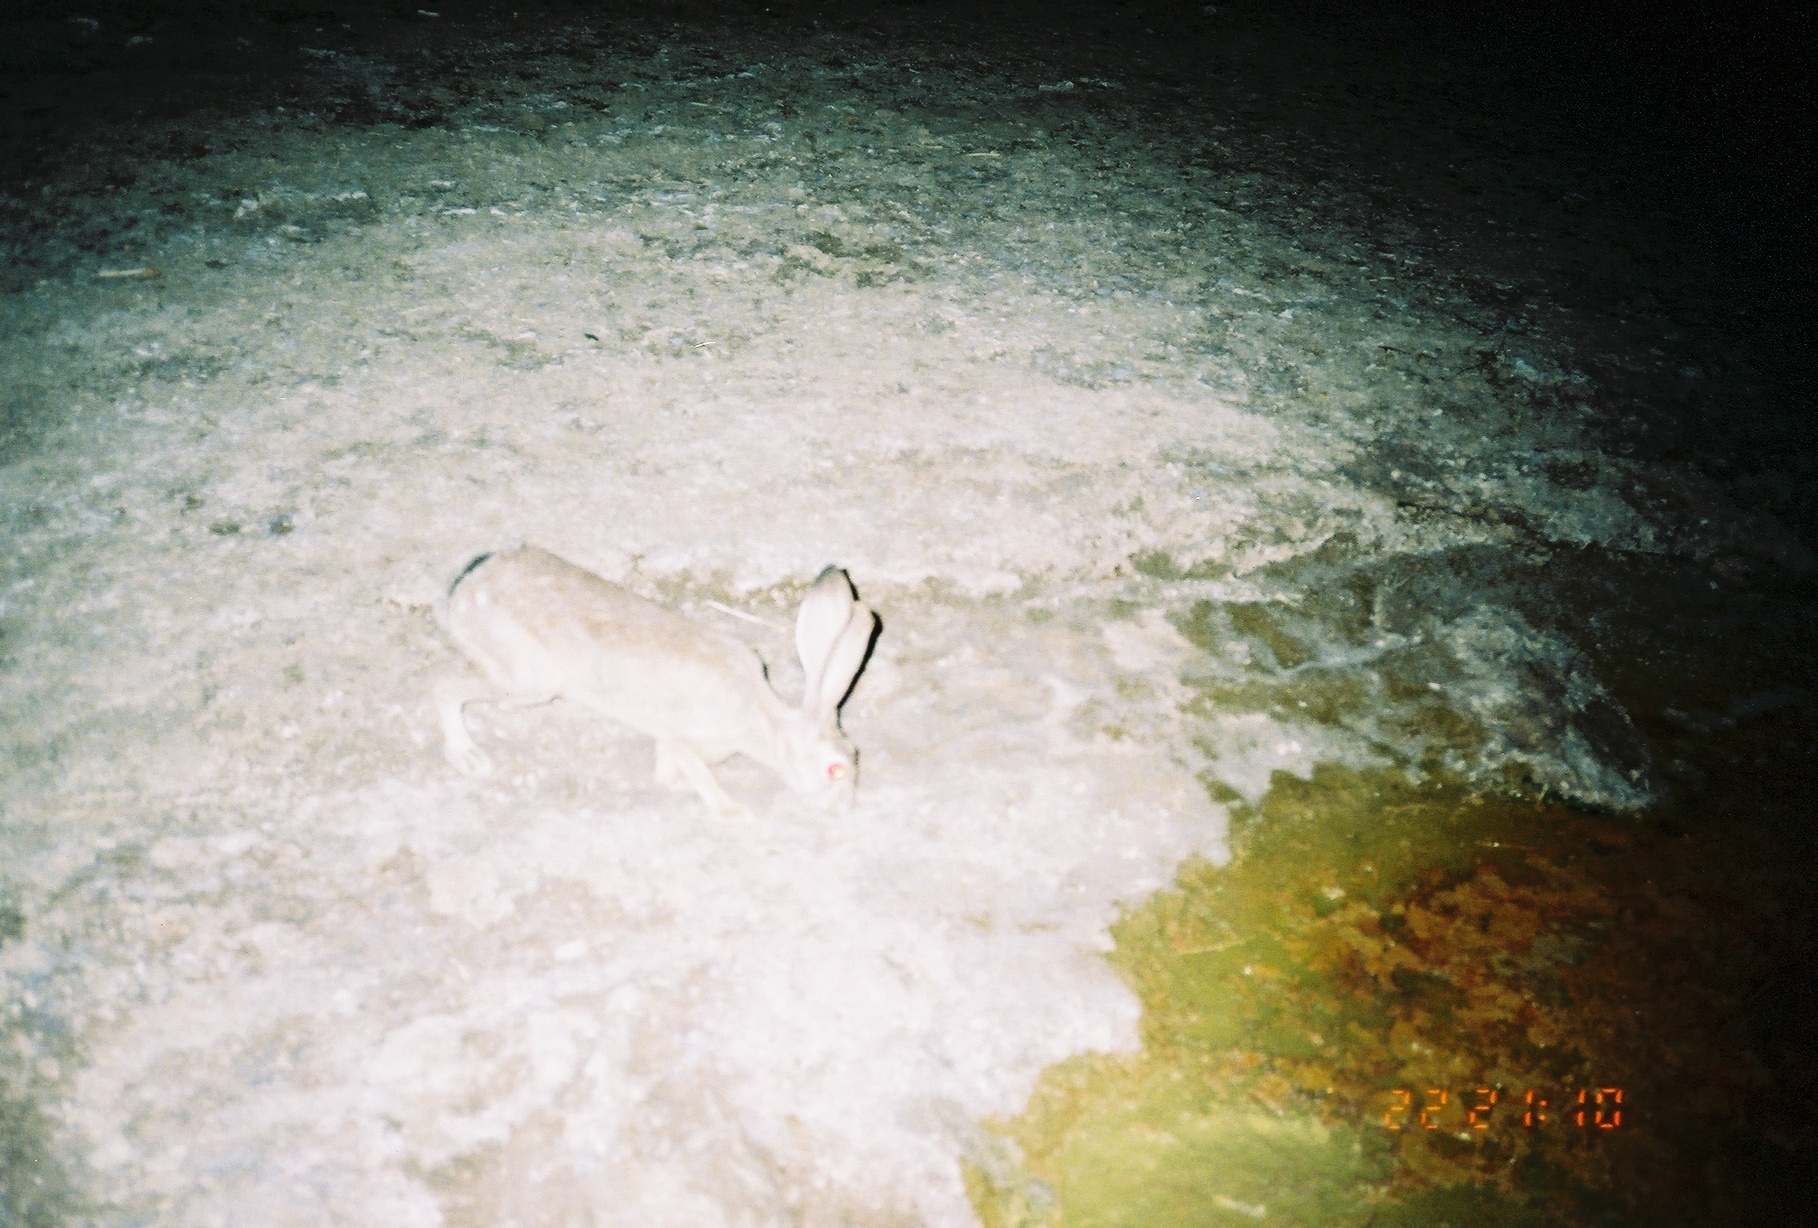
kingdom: Animalia
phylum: Chordata
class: Mammalia
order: Lagomorpha
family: Leporidae
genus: Lepus
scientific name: Lepus californicus
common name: Black-tailed jackrabbit
